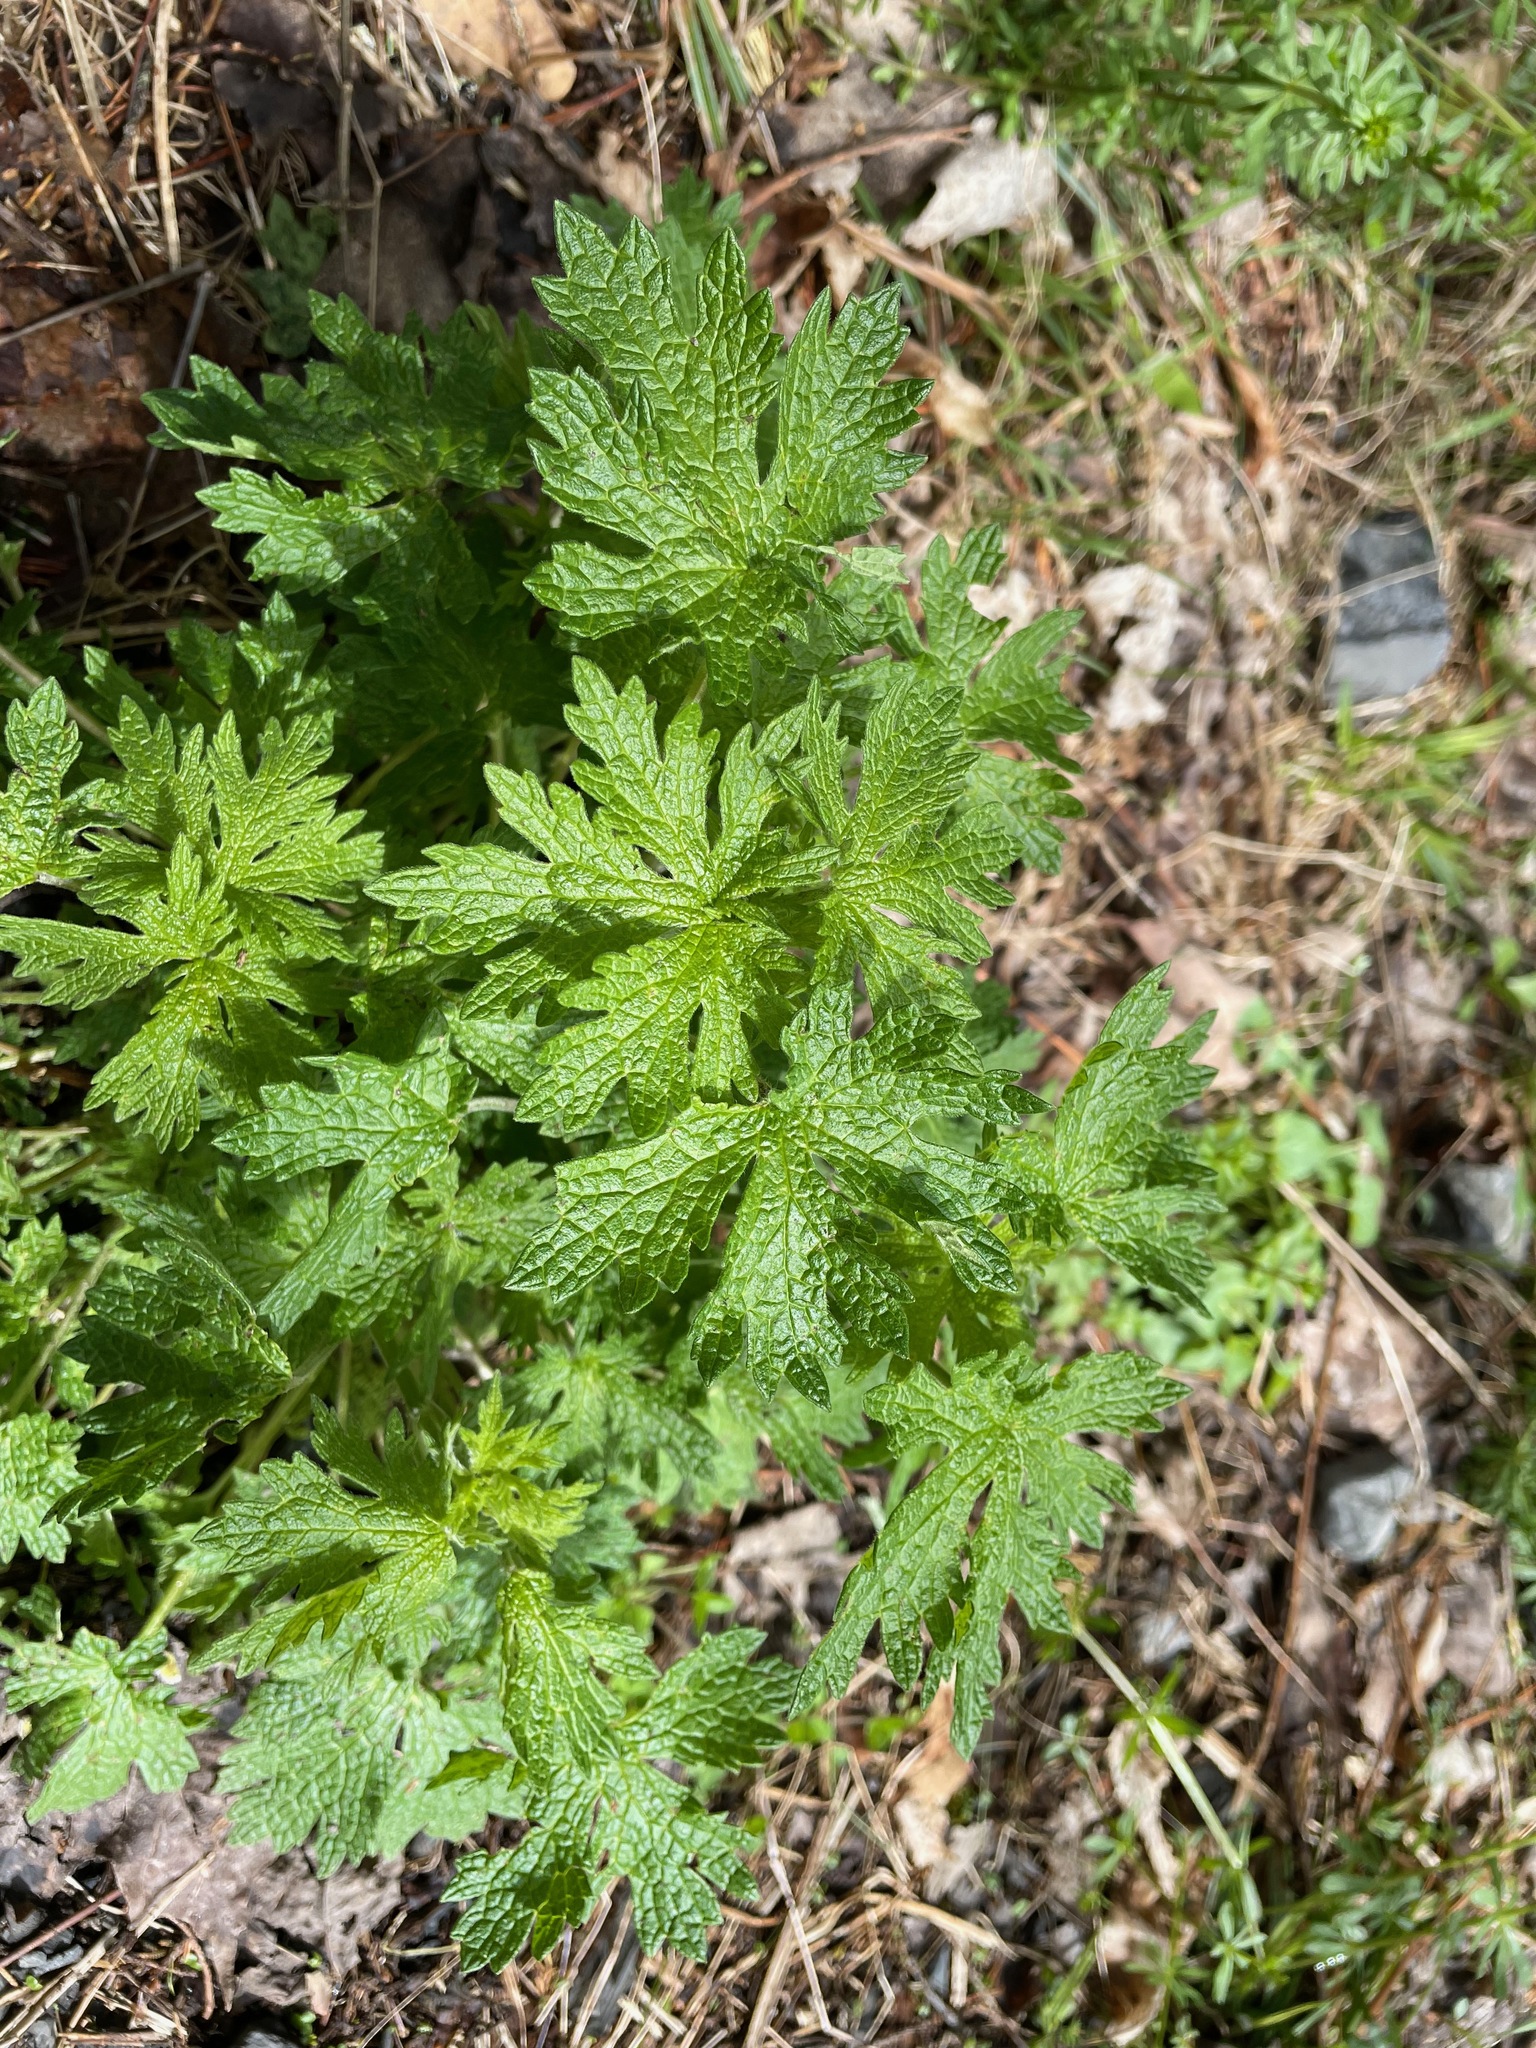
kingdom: Plantae
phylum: Tracheophyta
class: Magnoliopsida
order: Lamiales
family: Lamiaceae
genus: Leonurus
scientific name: Leonurus cardiaca
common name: Motherwort
